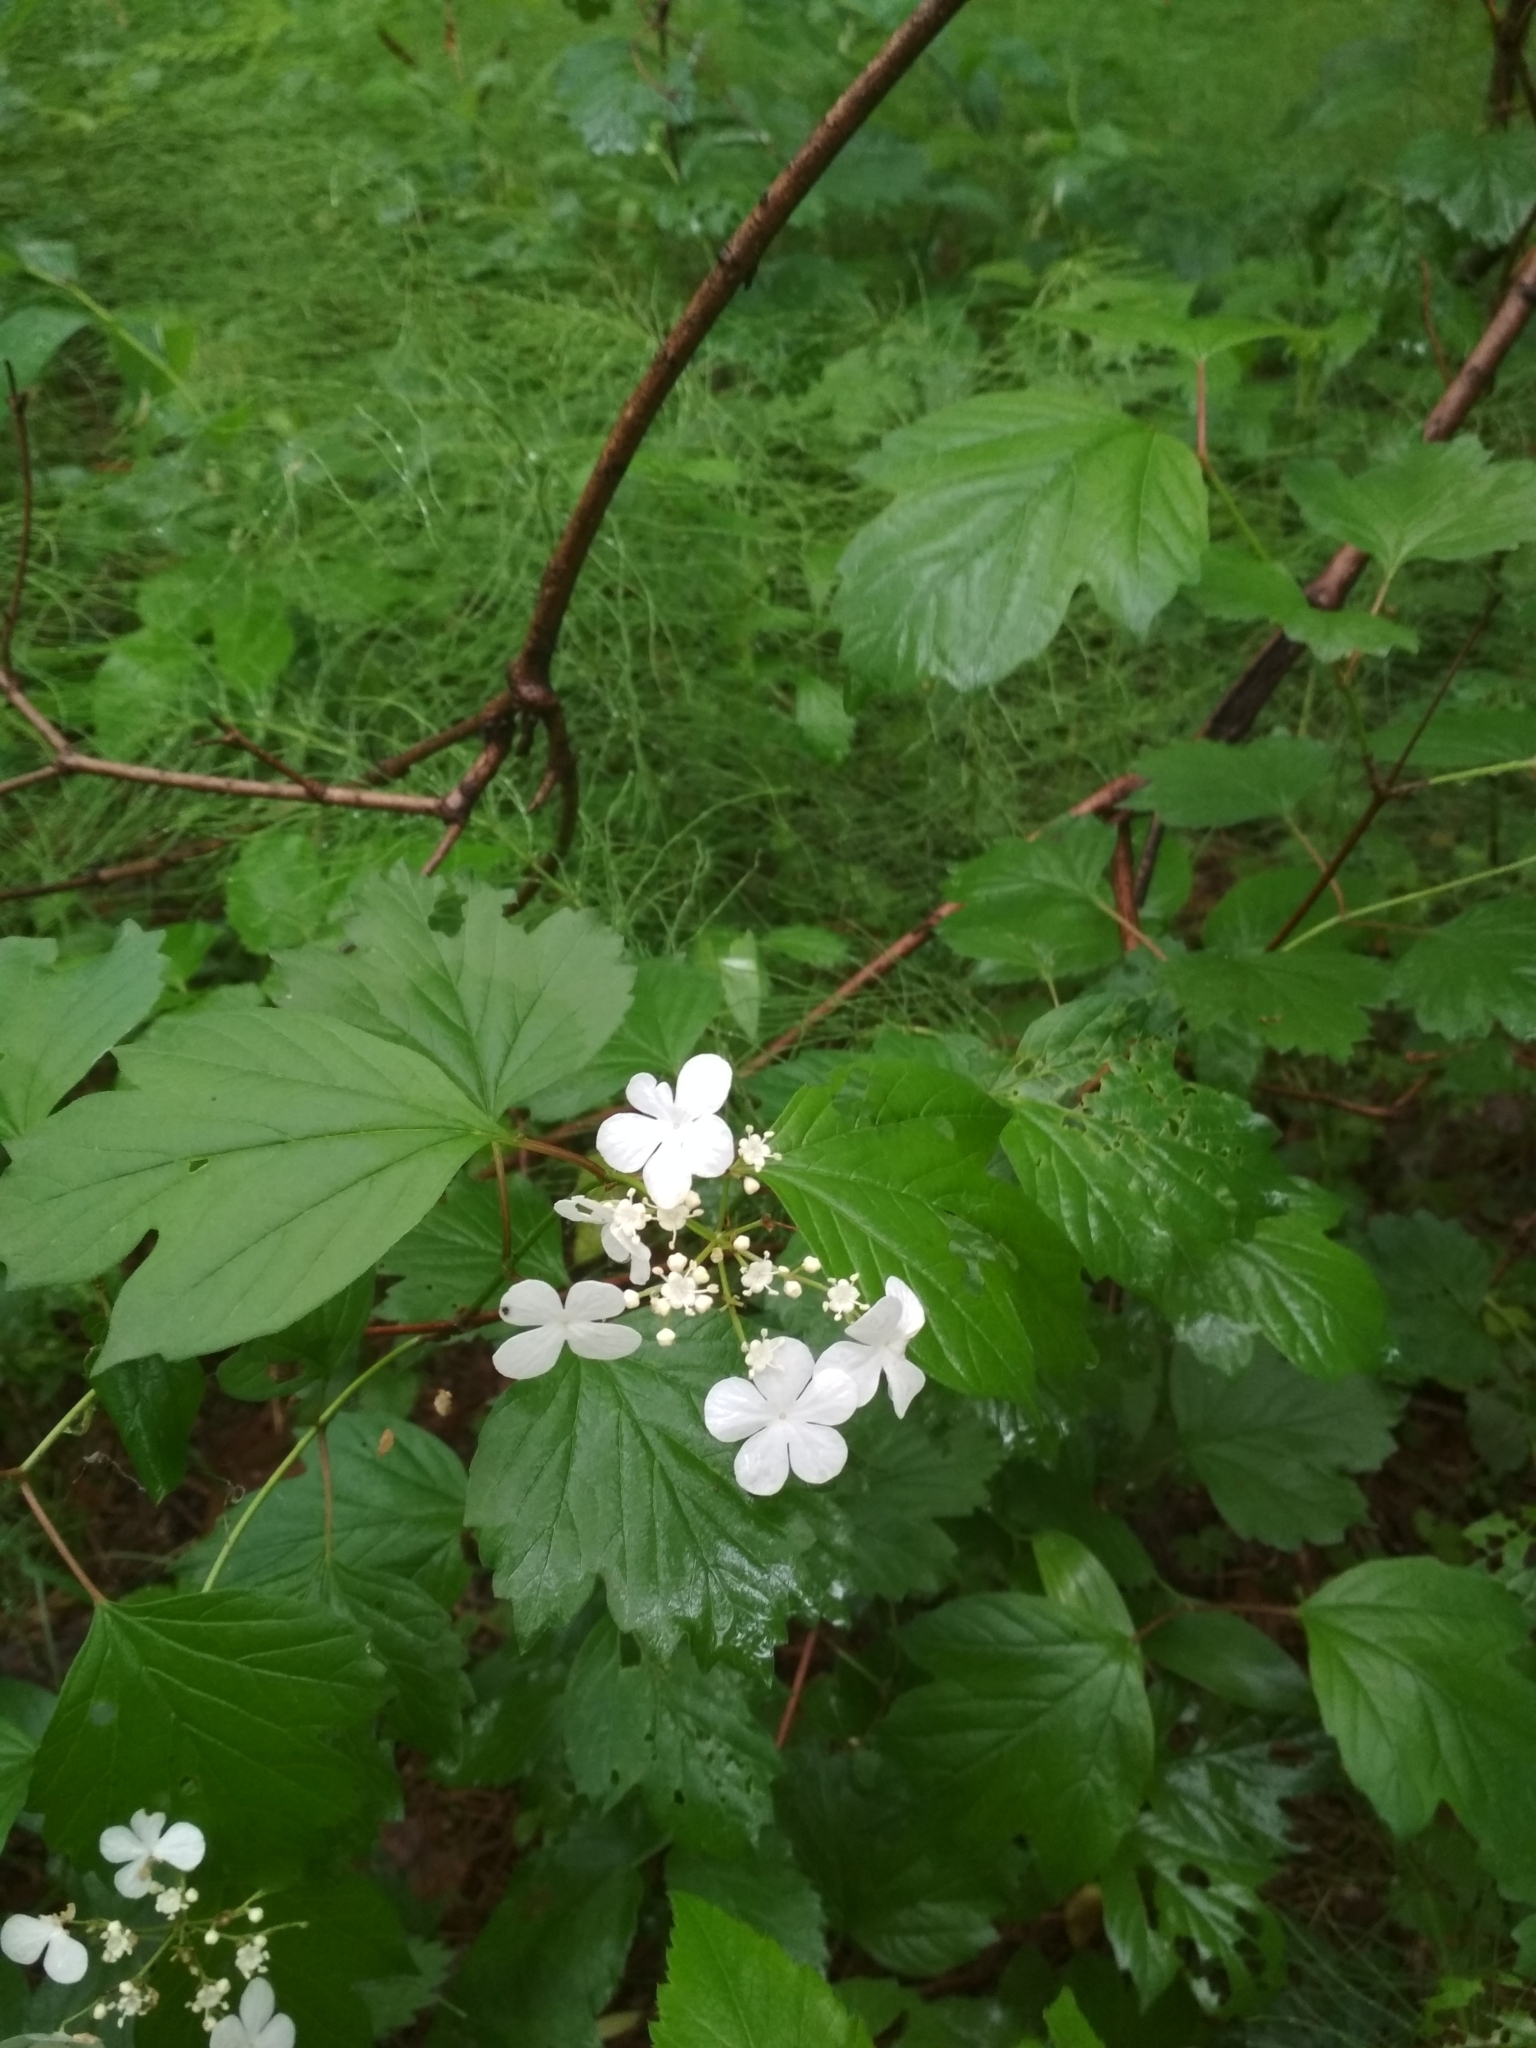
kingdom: Plantae
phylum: Tracheophyta
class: Magnoliopsida
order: Dipsacales
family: Viburnaceae
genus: Viburnum
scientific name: Viburnum opulus
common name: Guelder-rose
